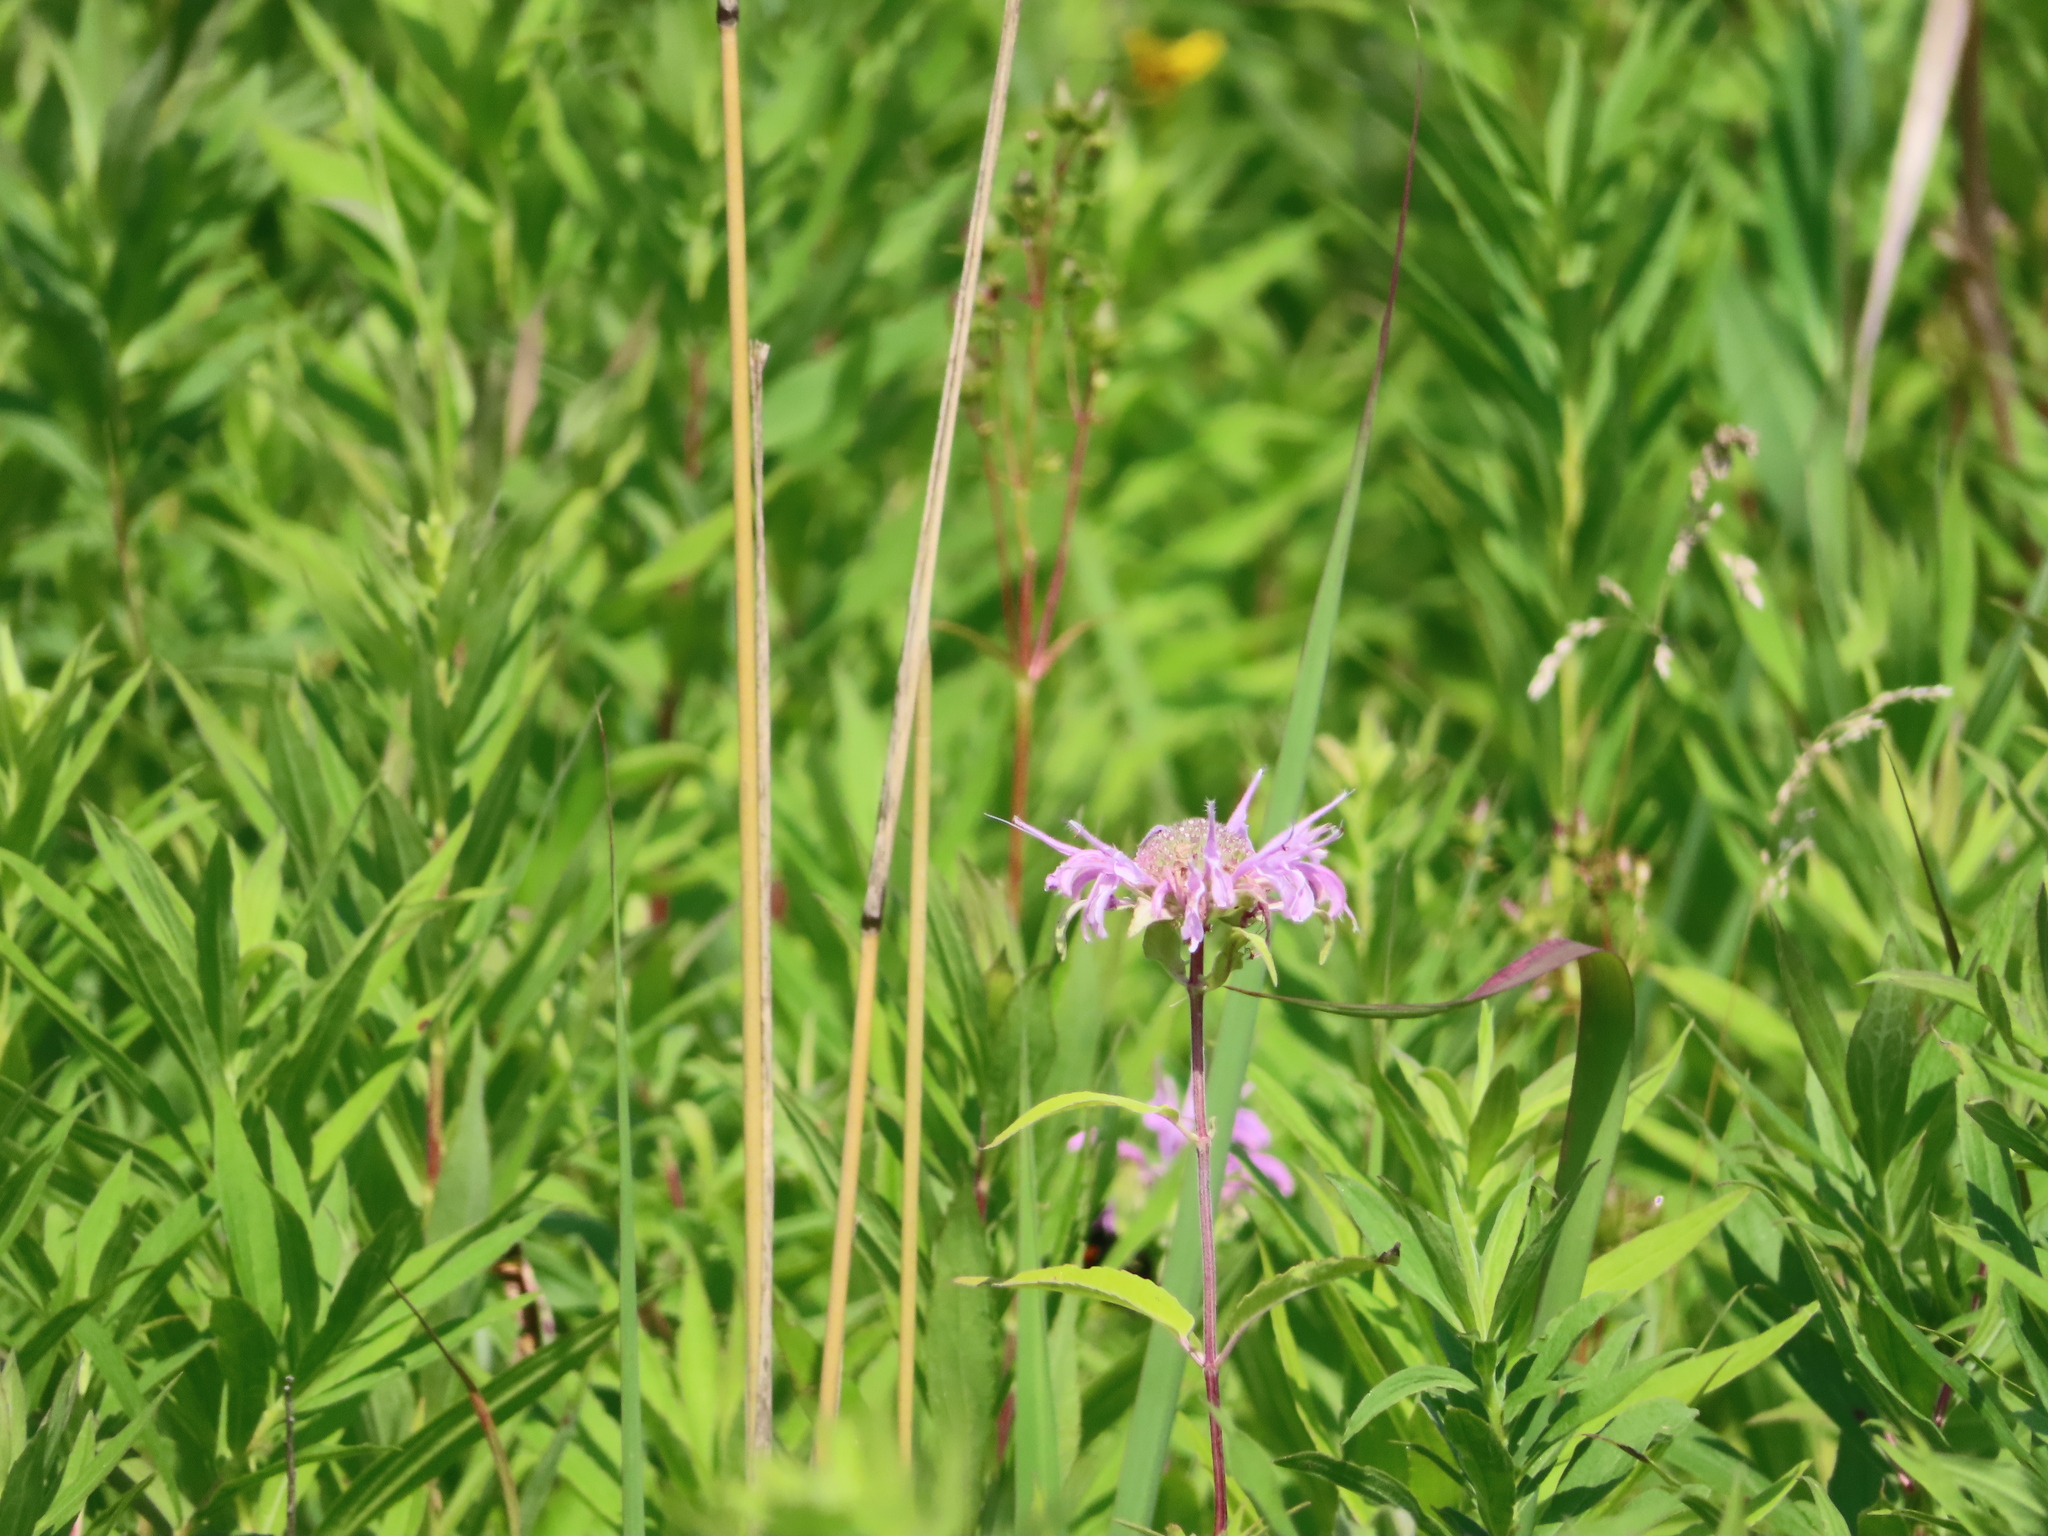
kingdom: Plantae
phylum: Tracheophyta
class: Magnoliopsida
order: Lamiales
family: Lamiaceae
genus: Monarda
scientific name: Monarda fistulosa
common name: Purple beebalm
